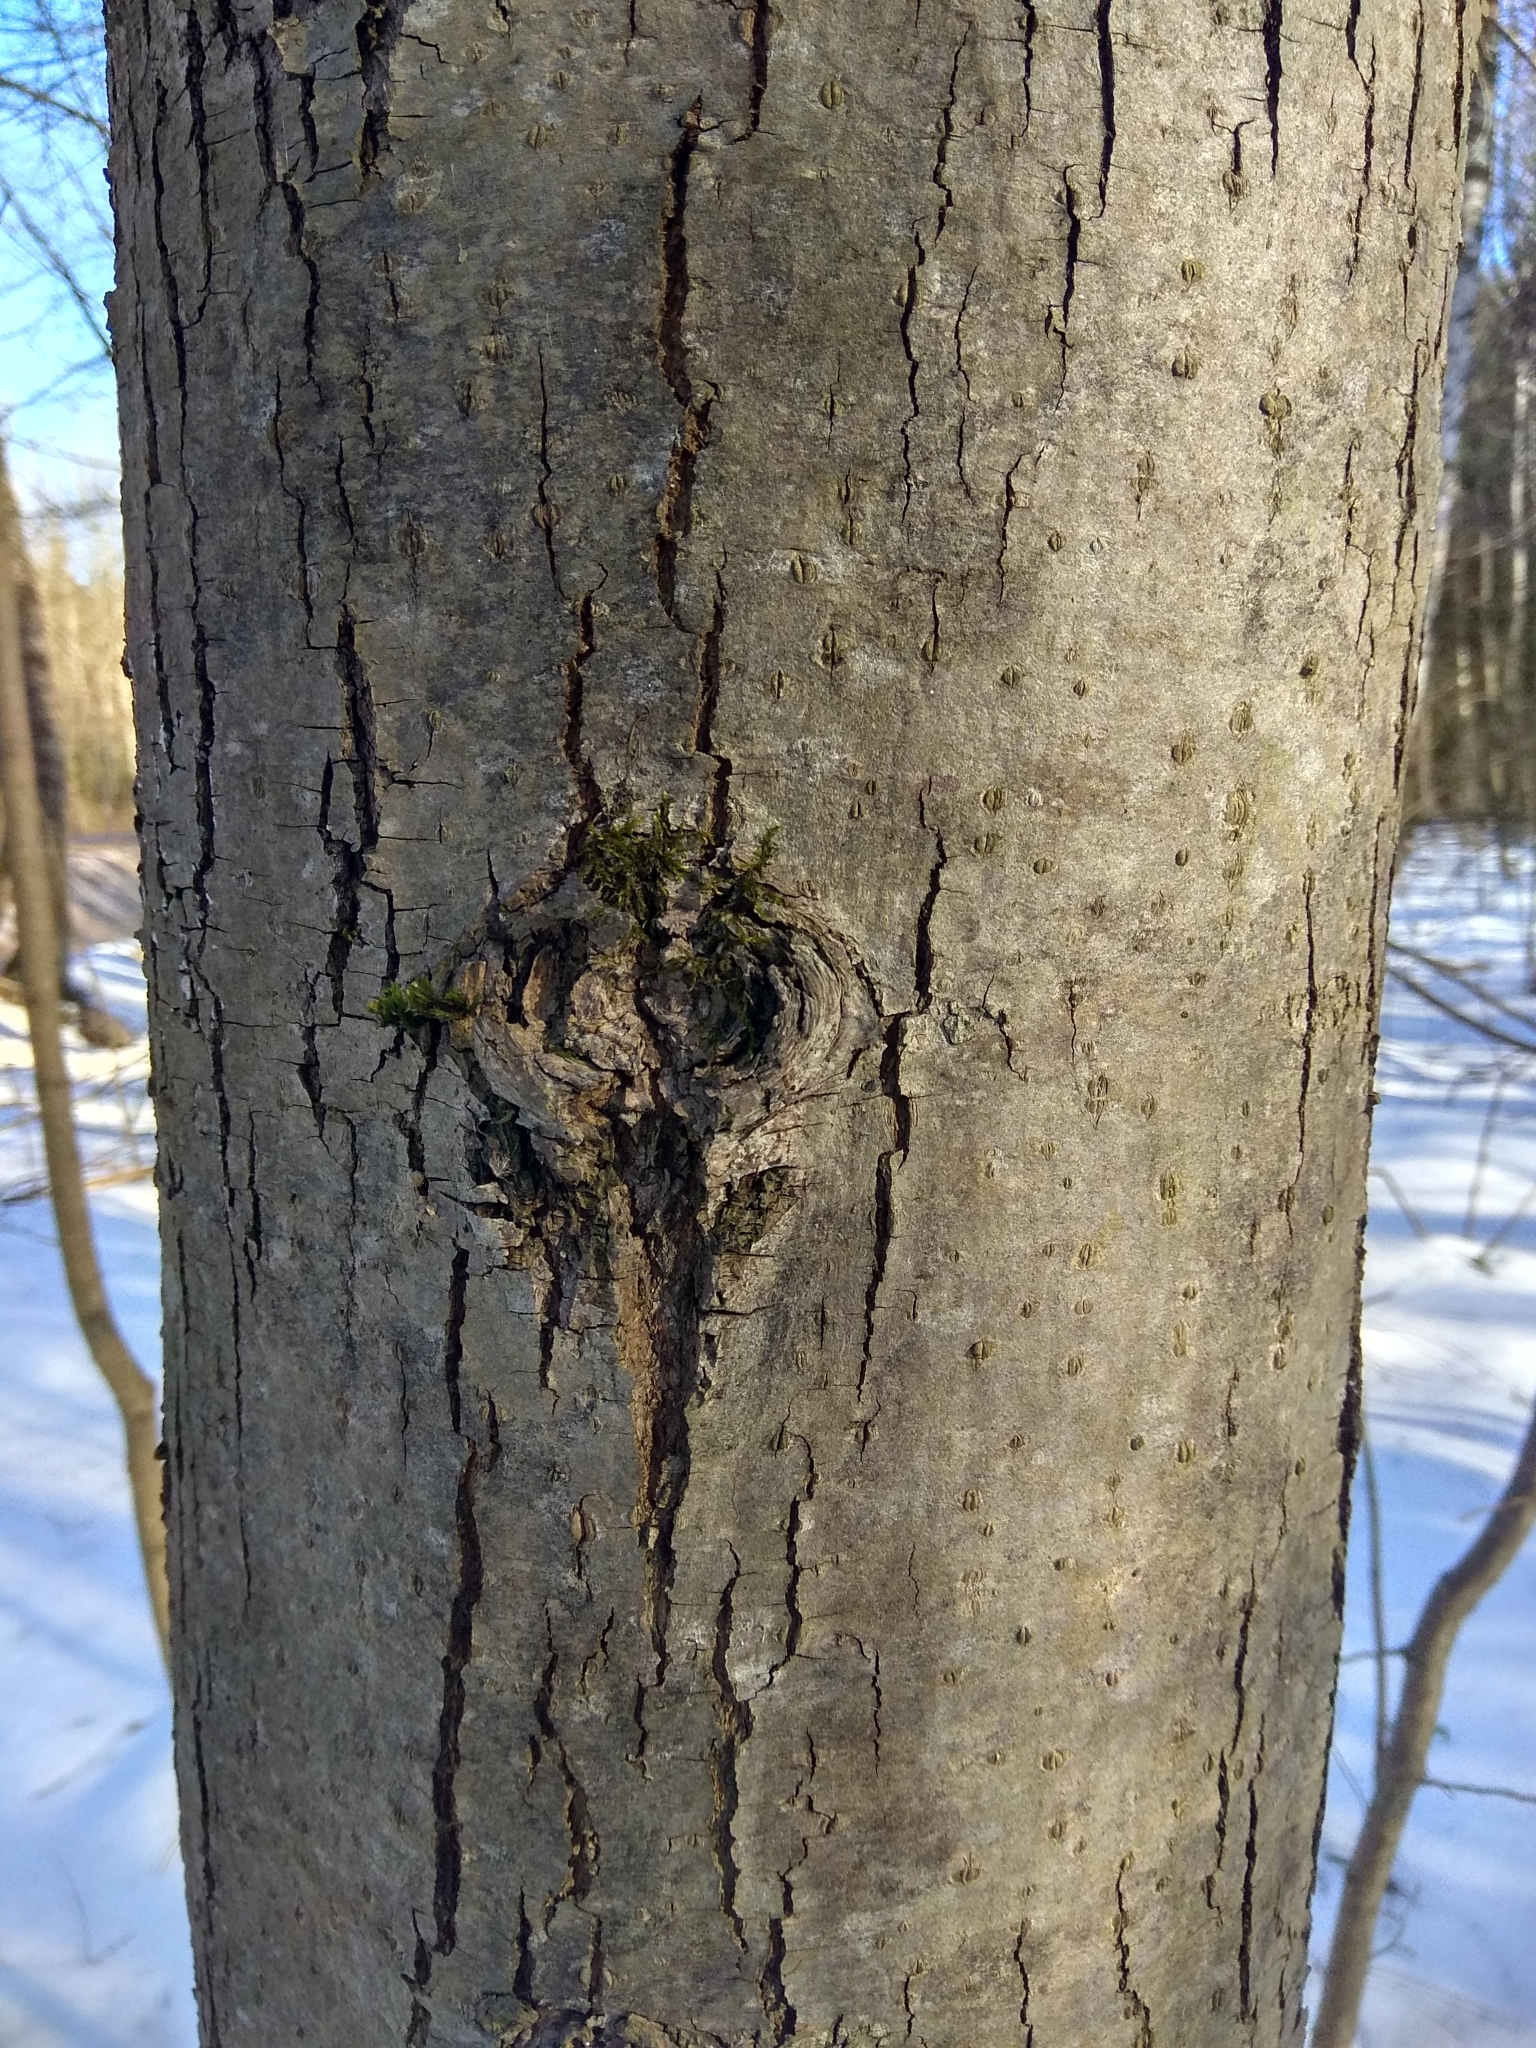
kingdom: Plantae
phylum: Tracheophyta
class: Magnoliopsida
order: Malvales
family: Malvaceae
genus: Tilia
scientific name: Tilia cordata
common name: Small-leaved lime
